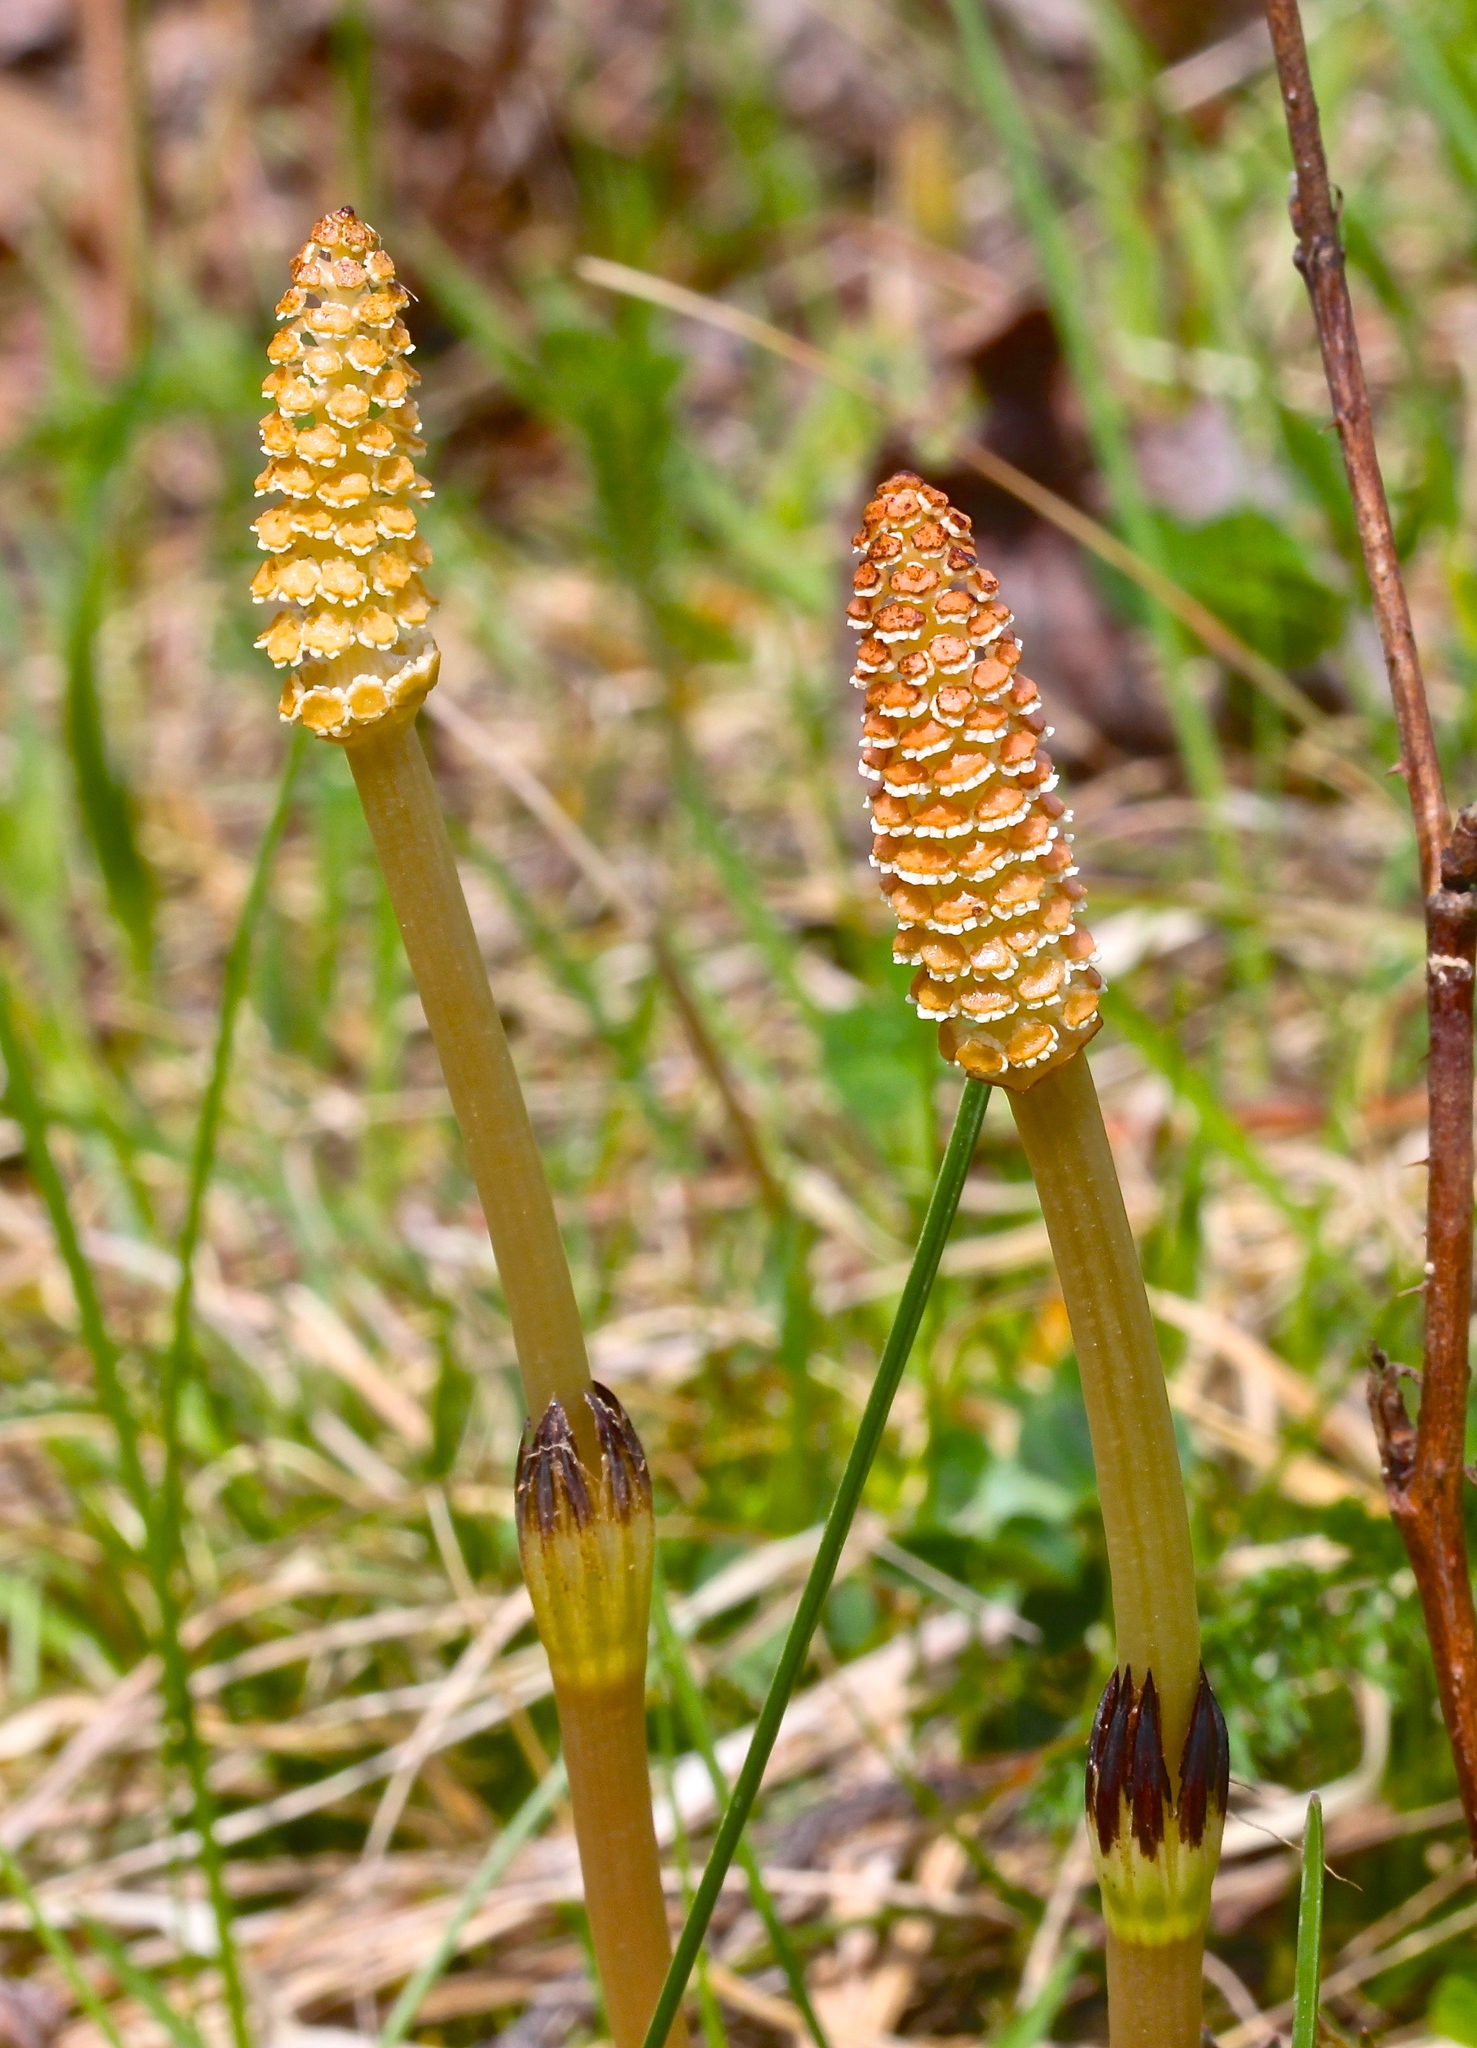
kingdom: Plantae
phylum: Tracheophyta
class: Polypodiopsida
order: Equisetales
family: Equisetaceae
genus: Equisetum
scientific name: Equisetum arvense
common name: Field horsetail
